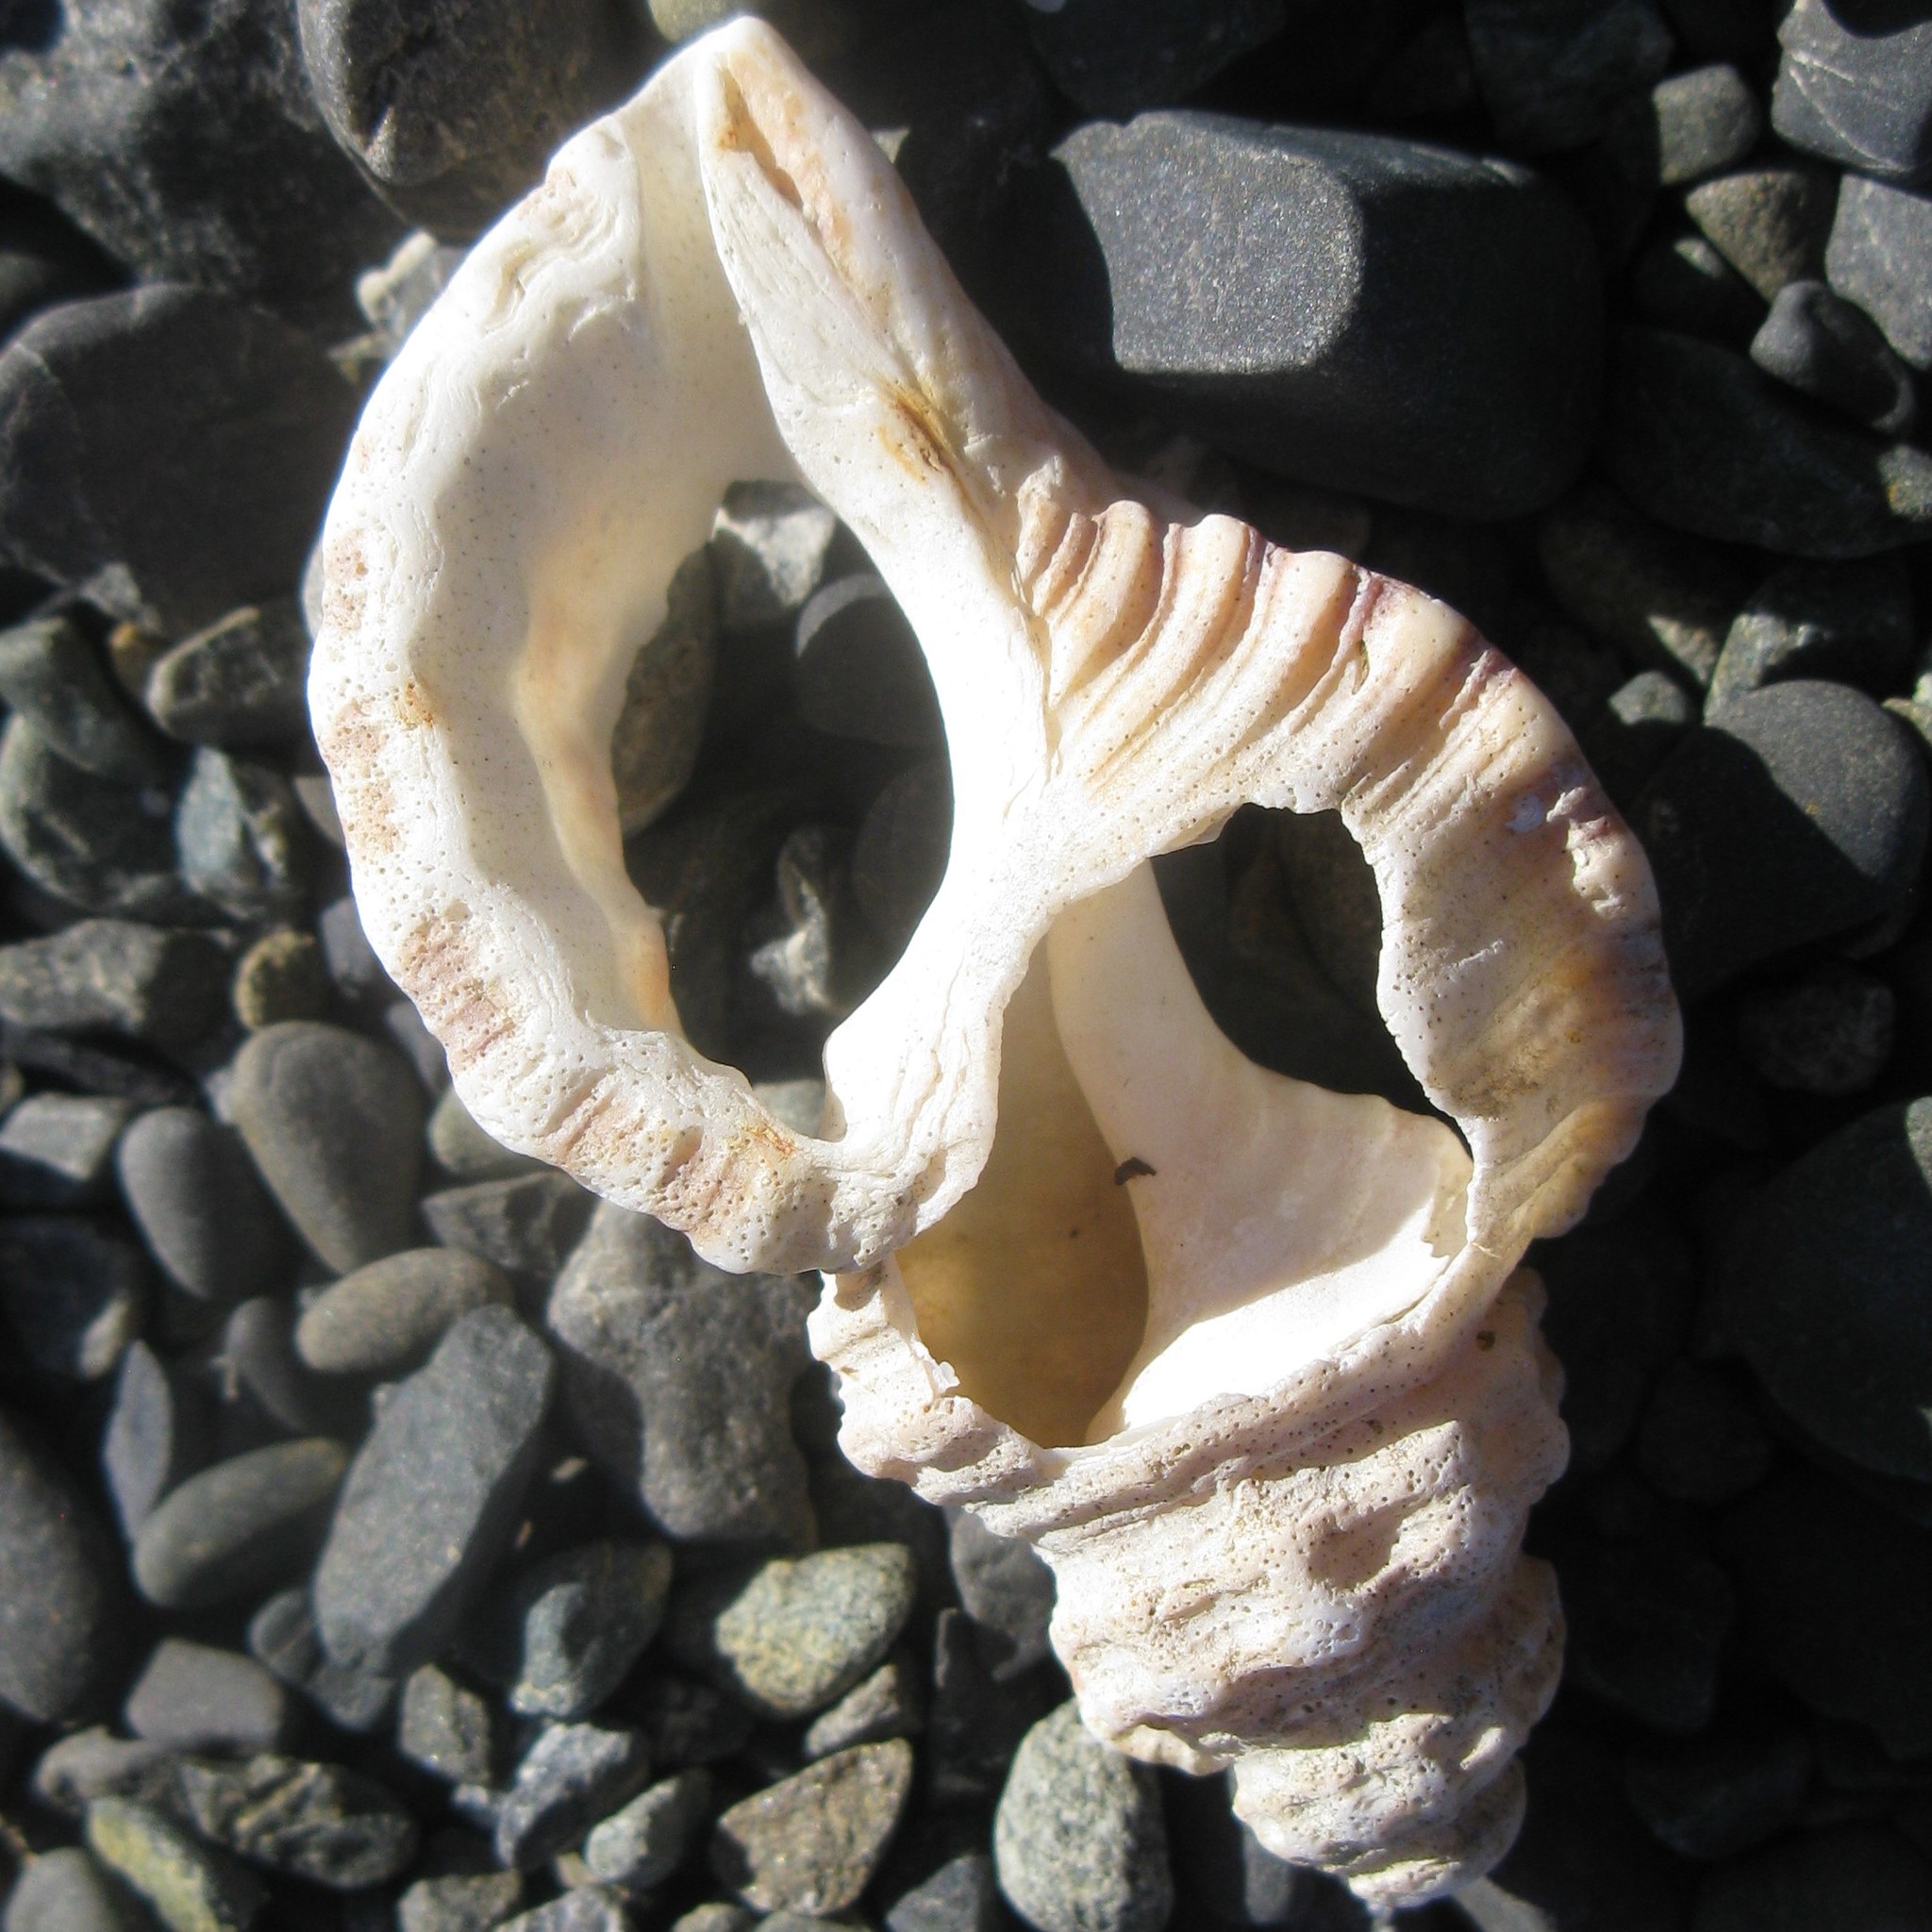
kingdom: Animalia
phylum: Mollusca
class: Gastropoda
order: Littorinimorpha
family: Cymatiidae
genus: Cabestana
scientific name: Cabestana spengleri
